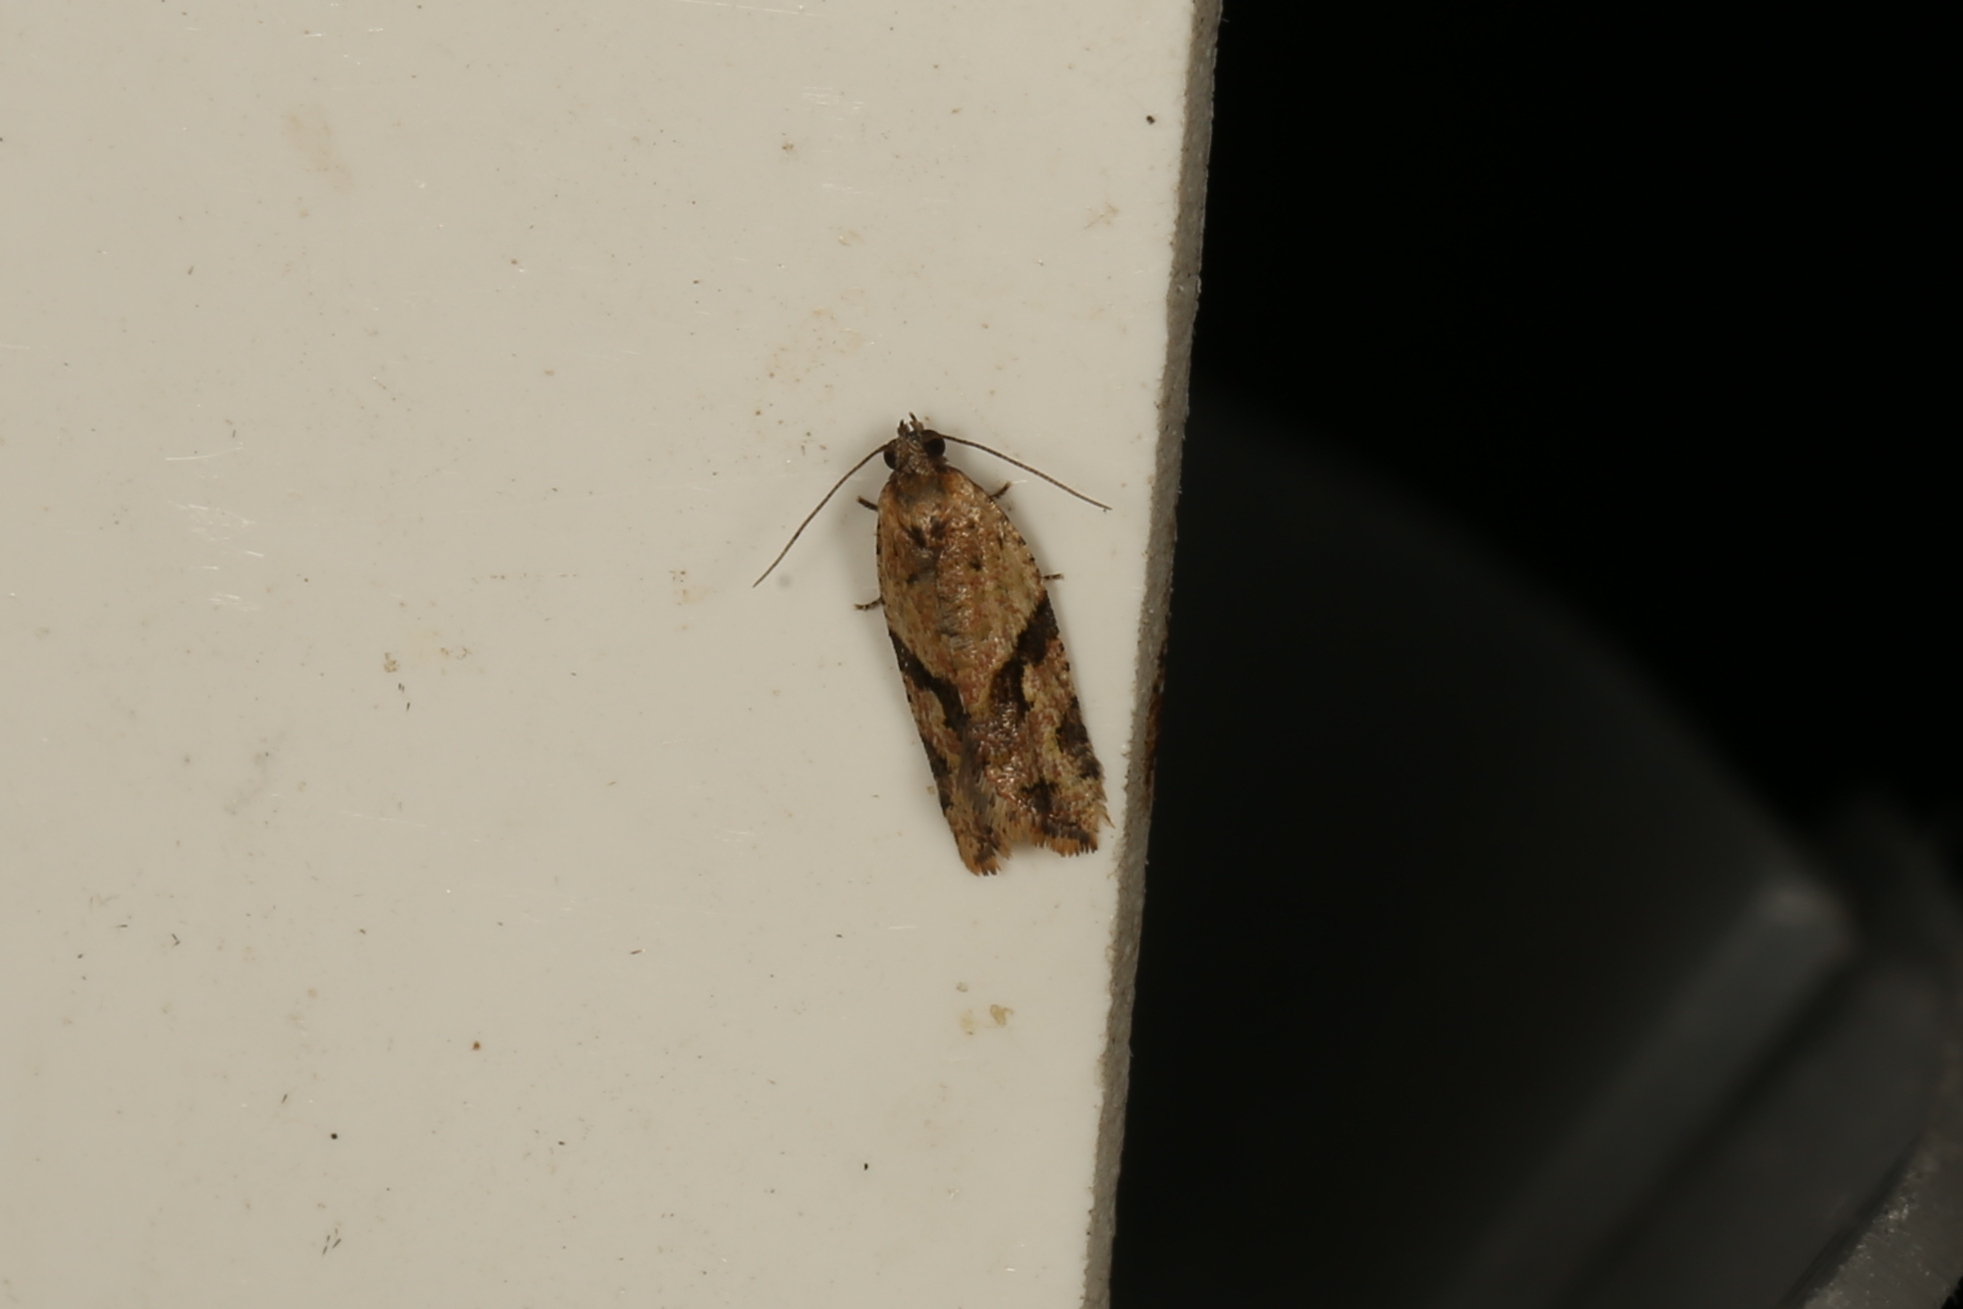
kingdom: Animalia
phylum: Arthropoda
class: Insecta
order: Lepidoptera
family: Tortricidae
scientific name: Tortricidae
